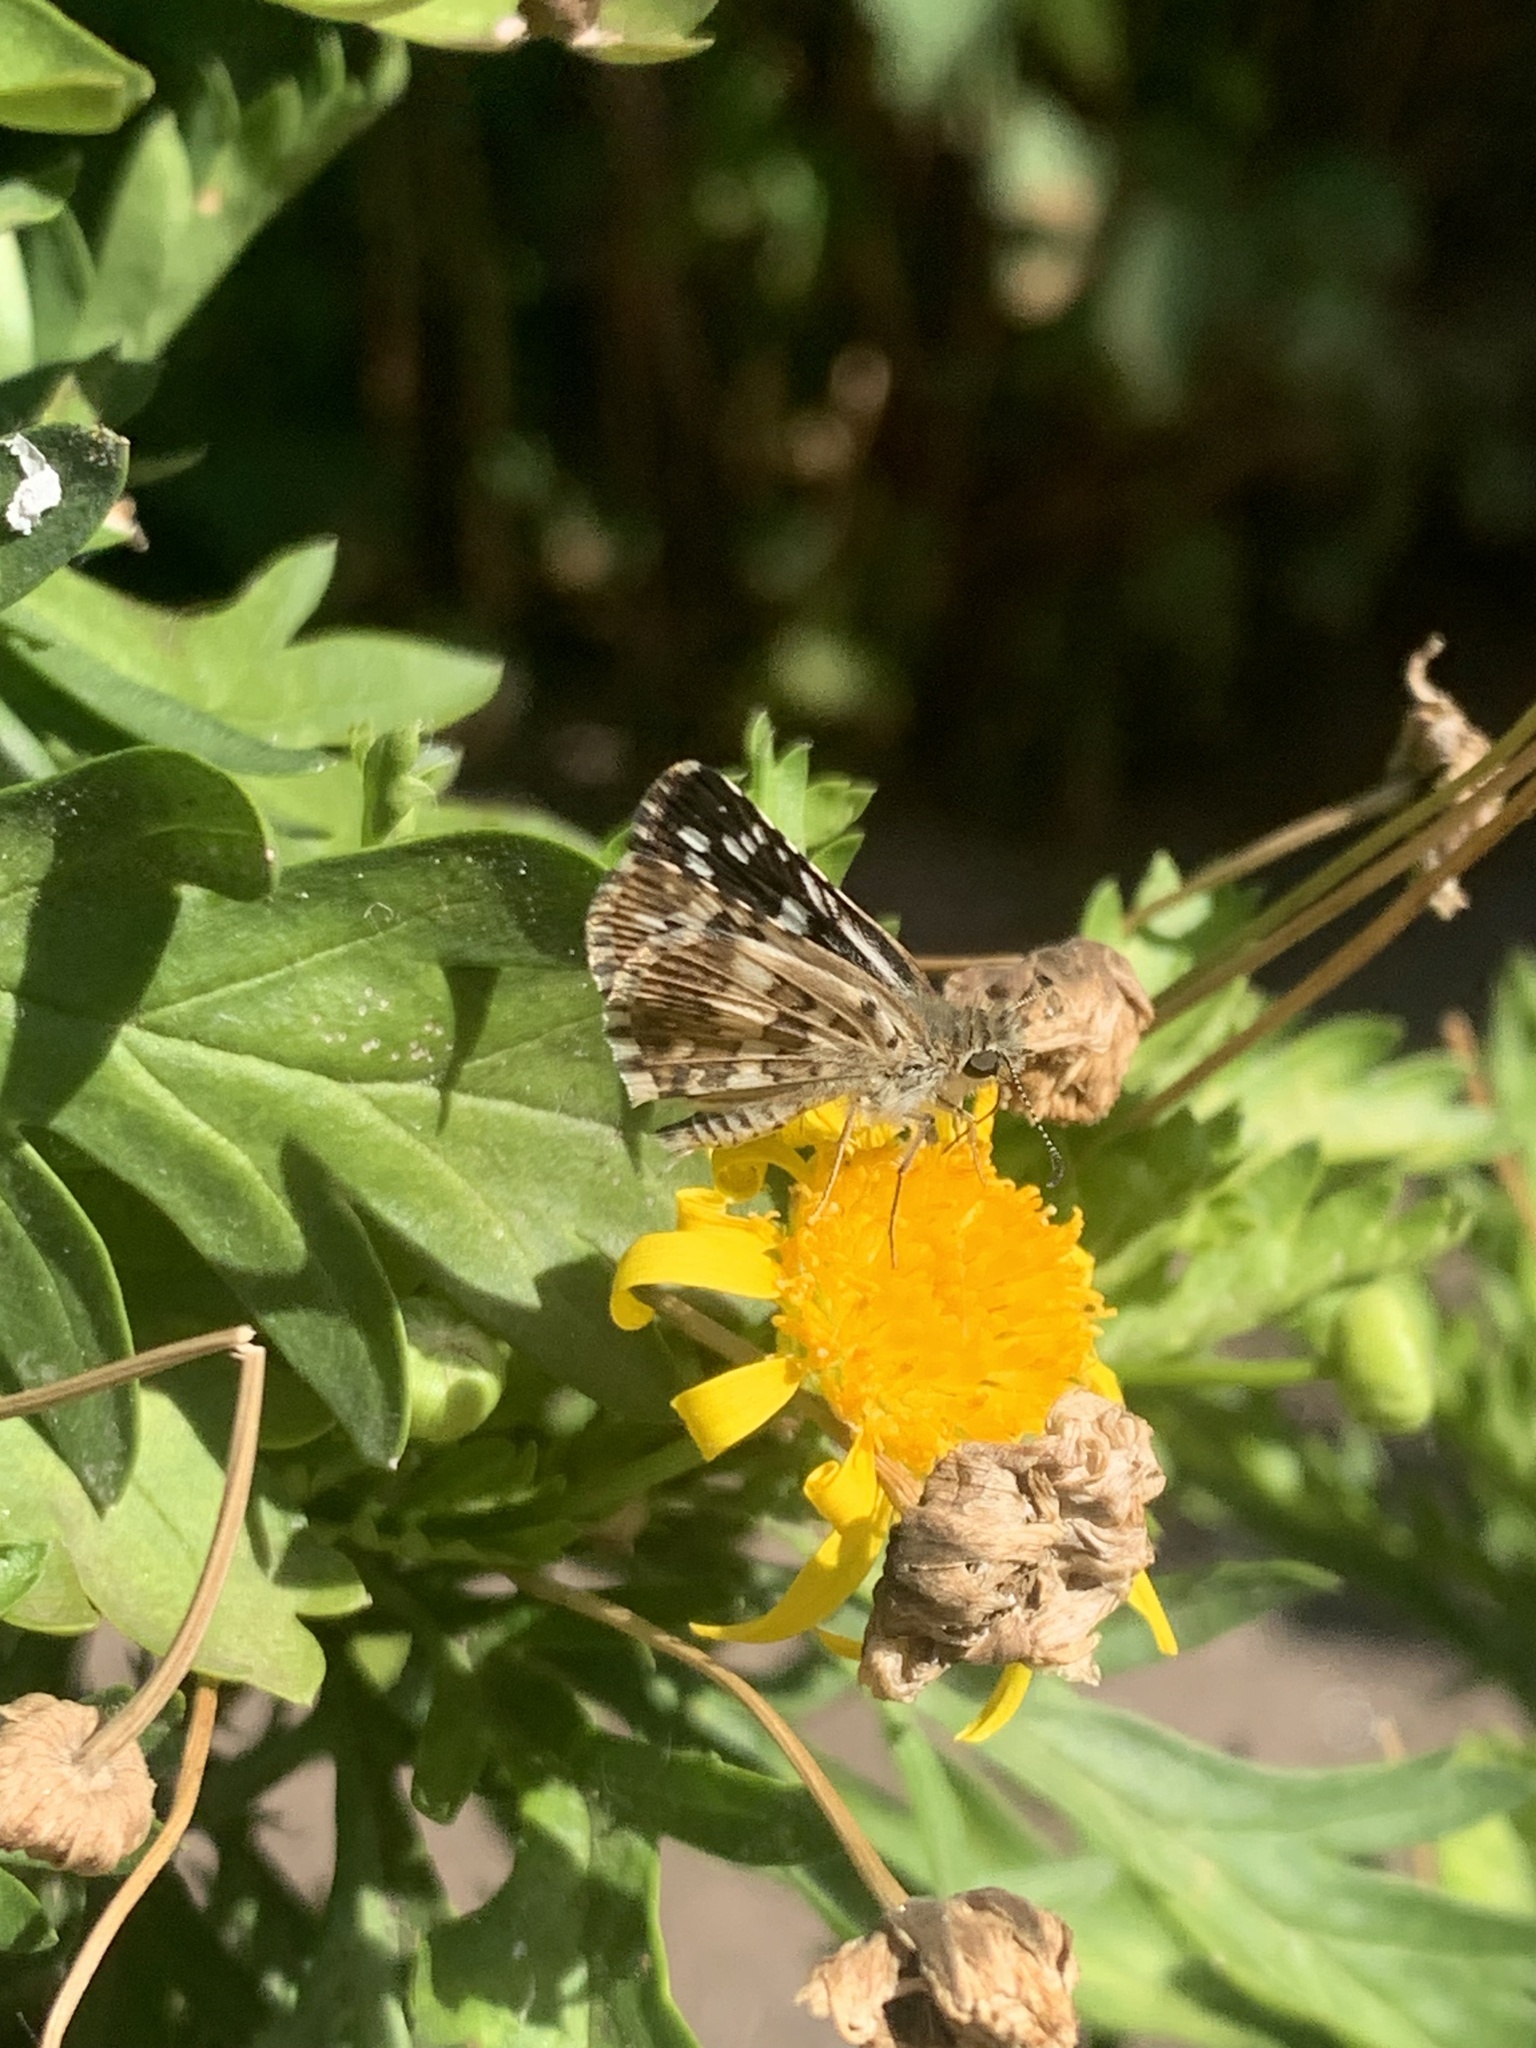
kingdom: Animalia
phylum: Arthropoda
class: Insecta
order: Lepidoptera
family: Hesperiidae
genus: Burnsius
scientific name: Burnsius orcynoides
